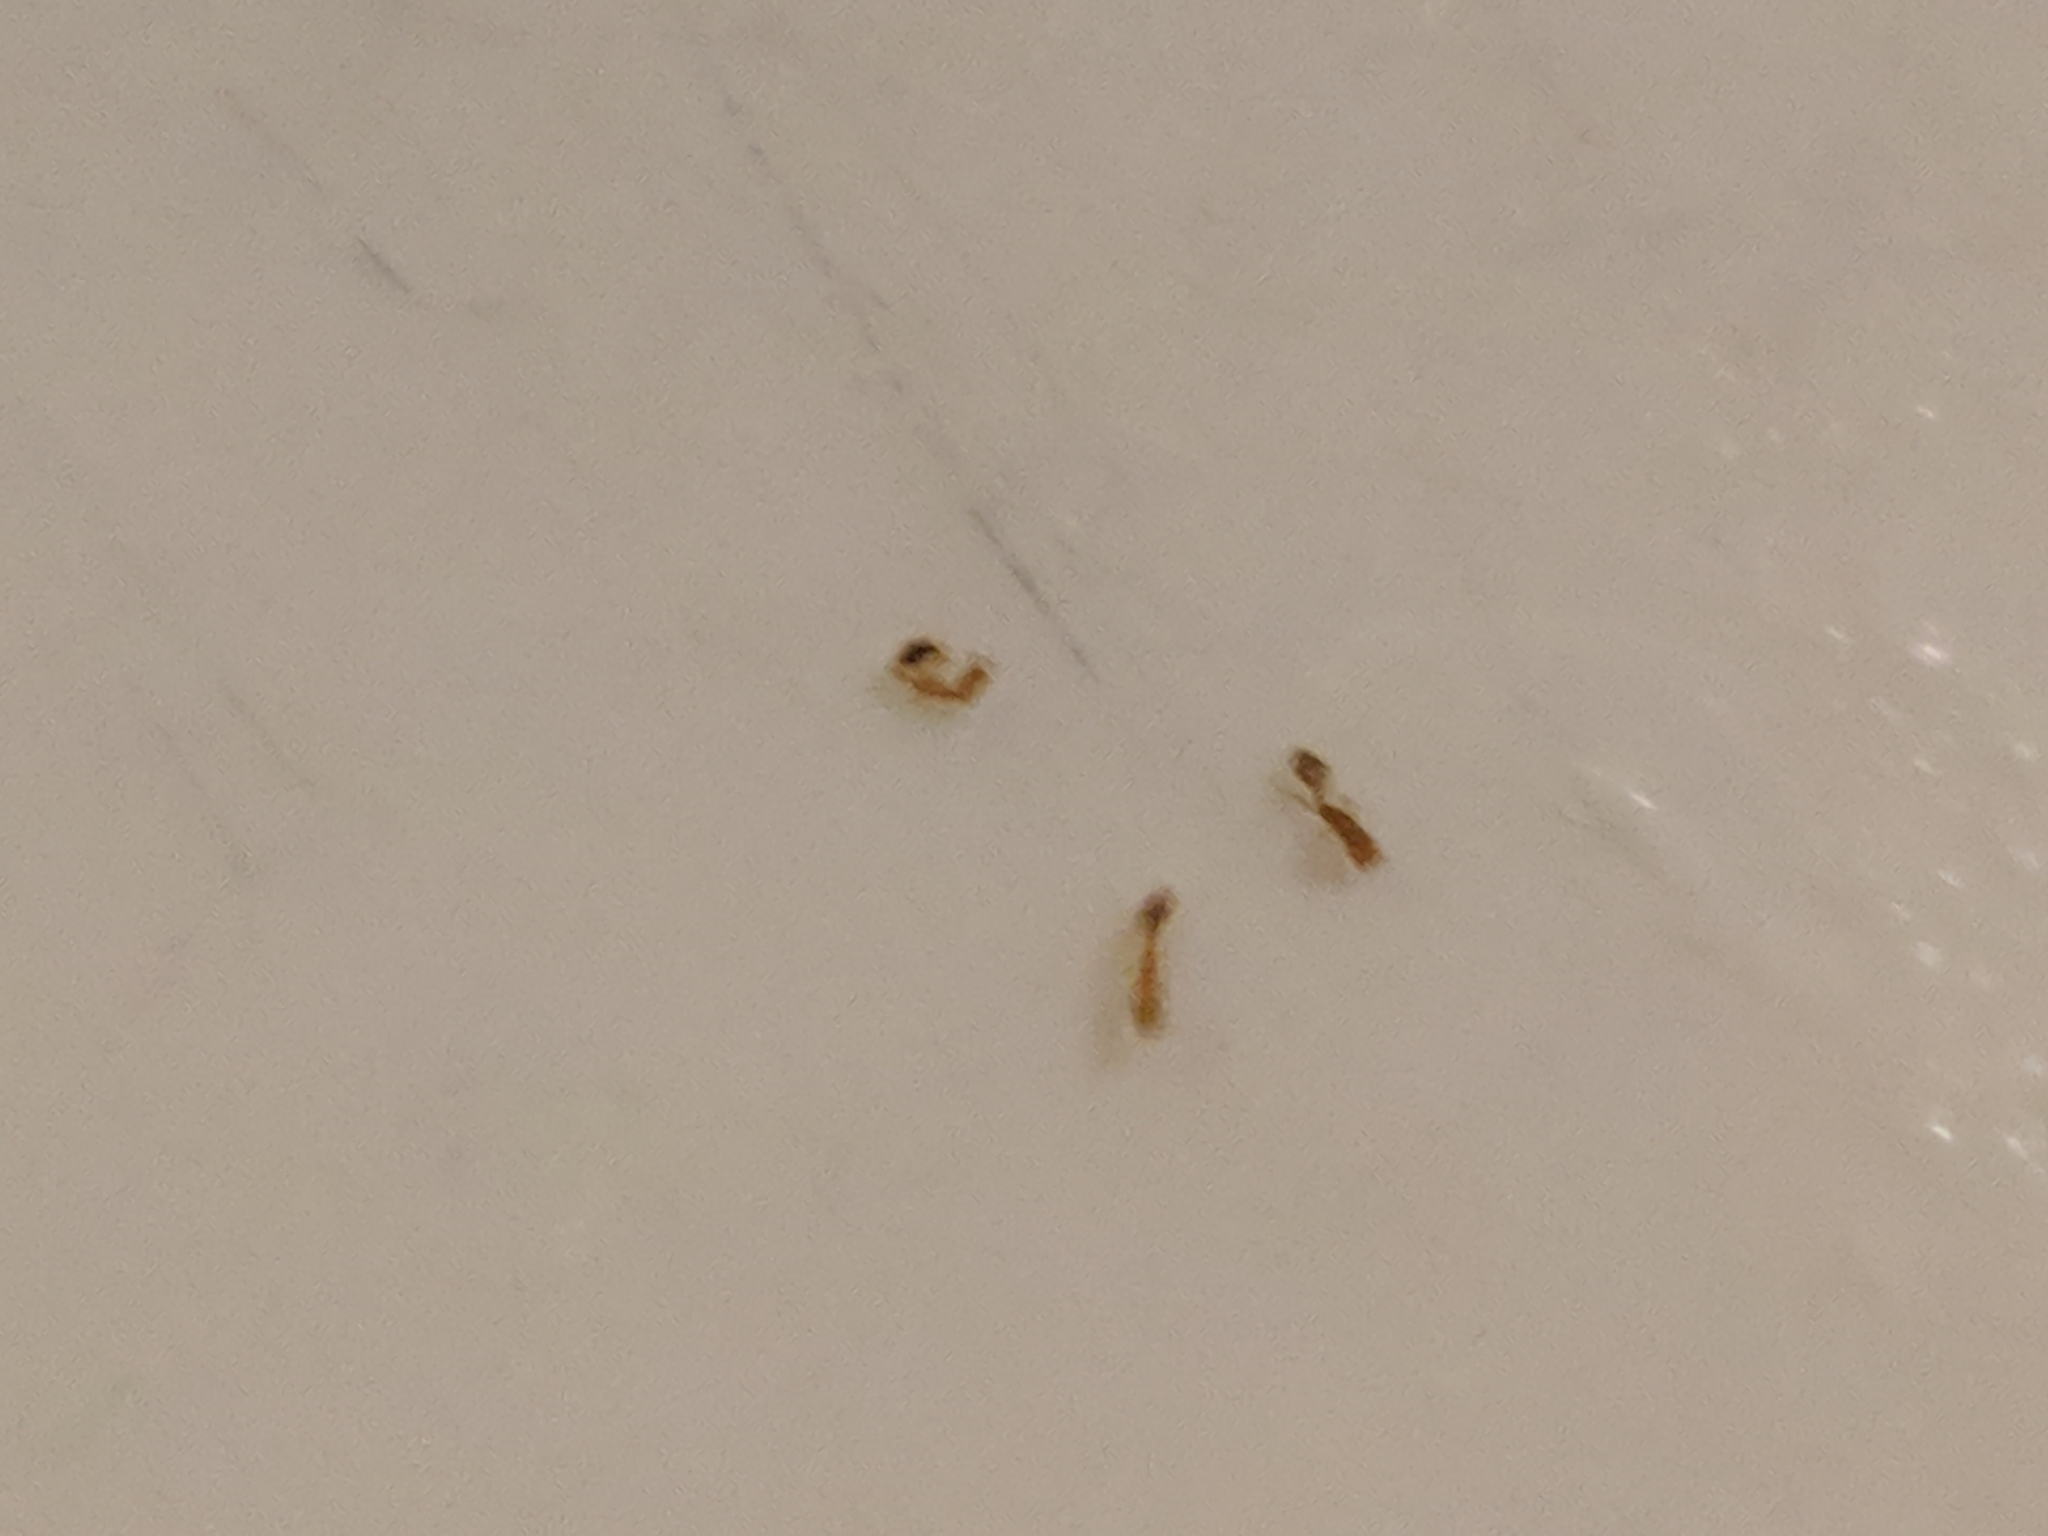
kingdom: Animalia
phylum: Arthropoda
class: Insecta
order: Hymenoptera
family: Formicidae
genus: Monomorium
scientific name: Monomorium pharaonis
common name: Pharaoh ant
